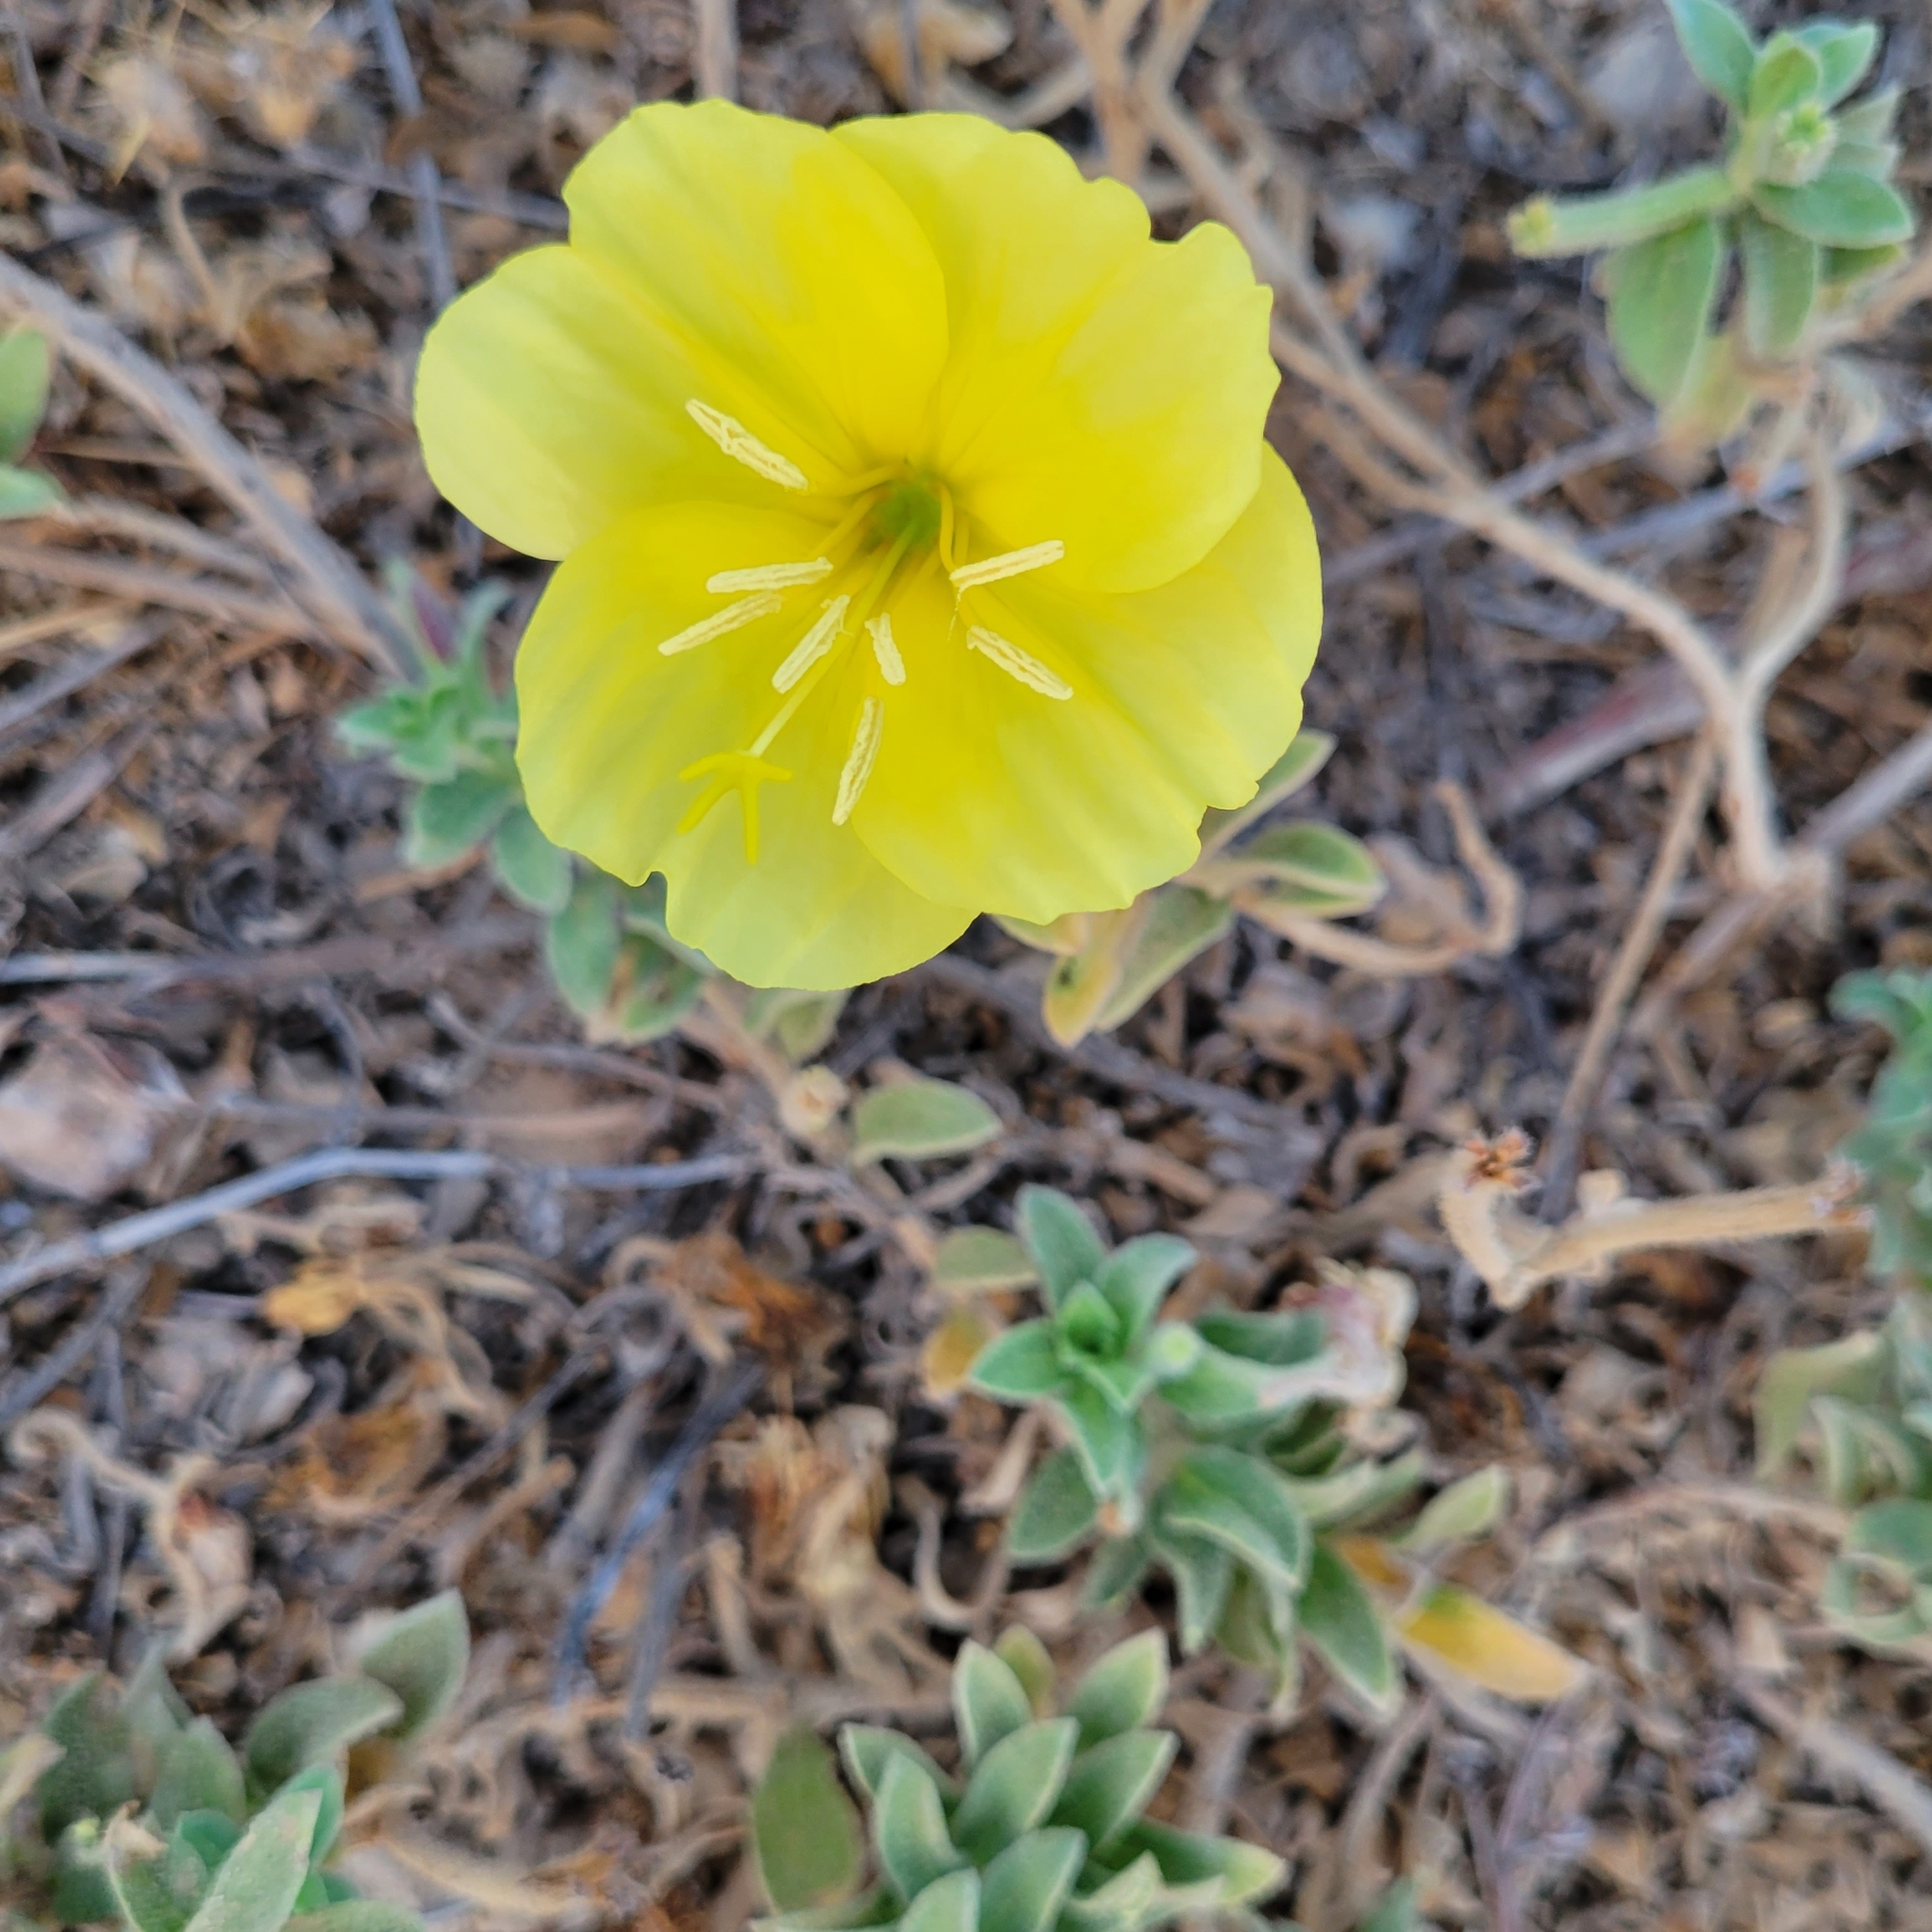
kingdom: Plantae
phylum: Tracheophyta
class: Magnoliopsida
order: Myrtales
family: Onagraceae
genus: Oenothera
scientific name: Oenothera drummondii
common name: Beach evening-primrose
